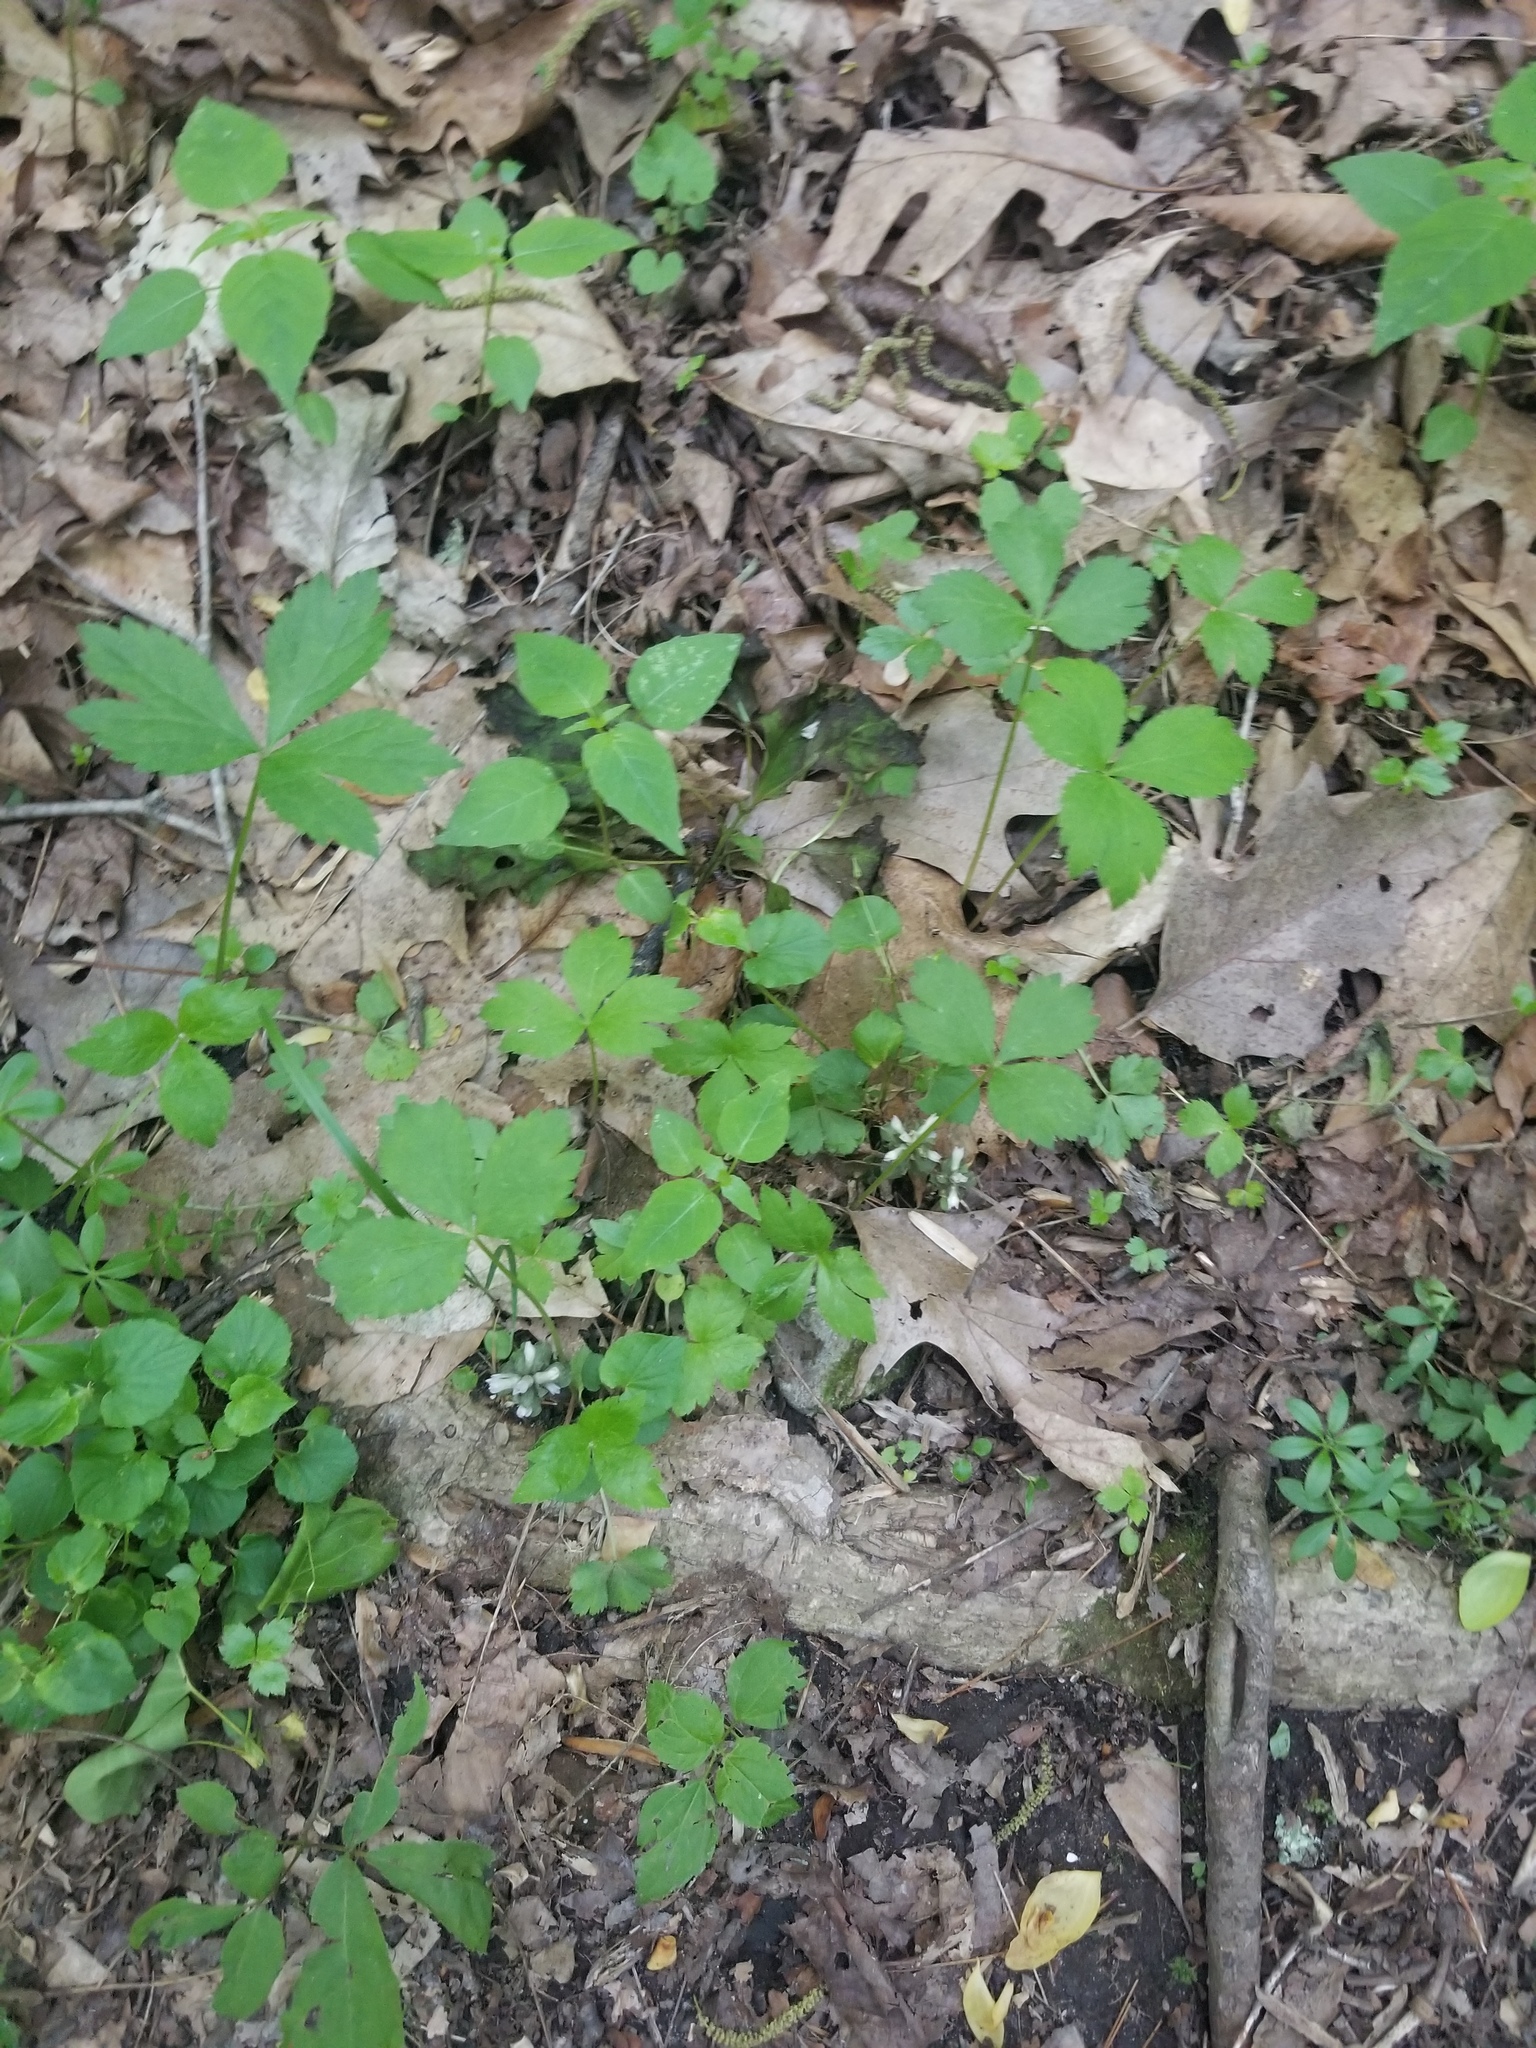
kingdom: Plantae
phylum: Tracheophyta
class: Magnoliopsida
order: Gentianales
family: Gentianaceae
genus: Obolaria
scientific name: Obolaria virginica
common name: Pennywort
